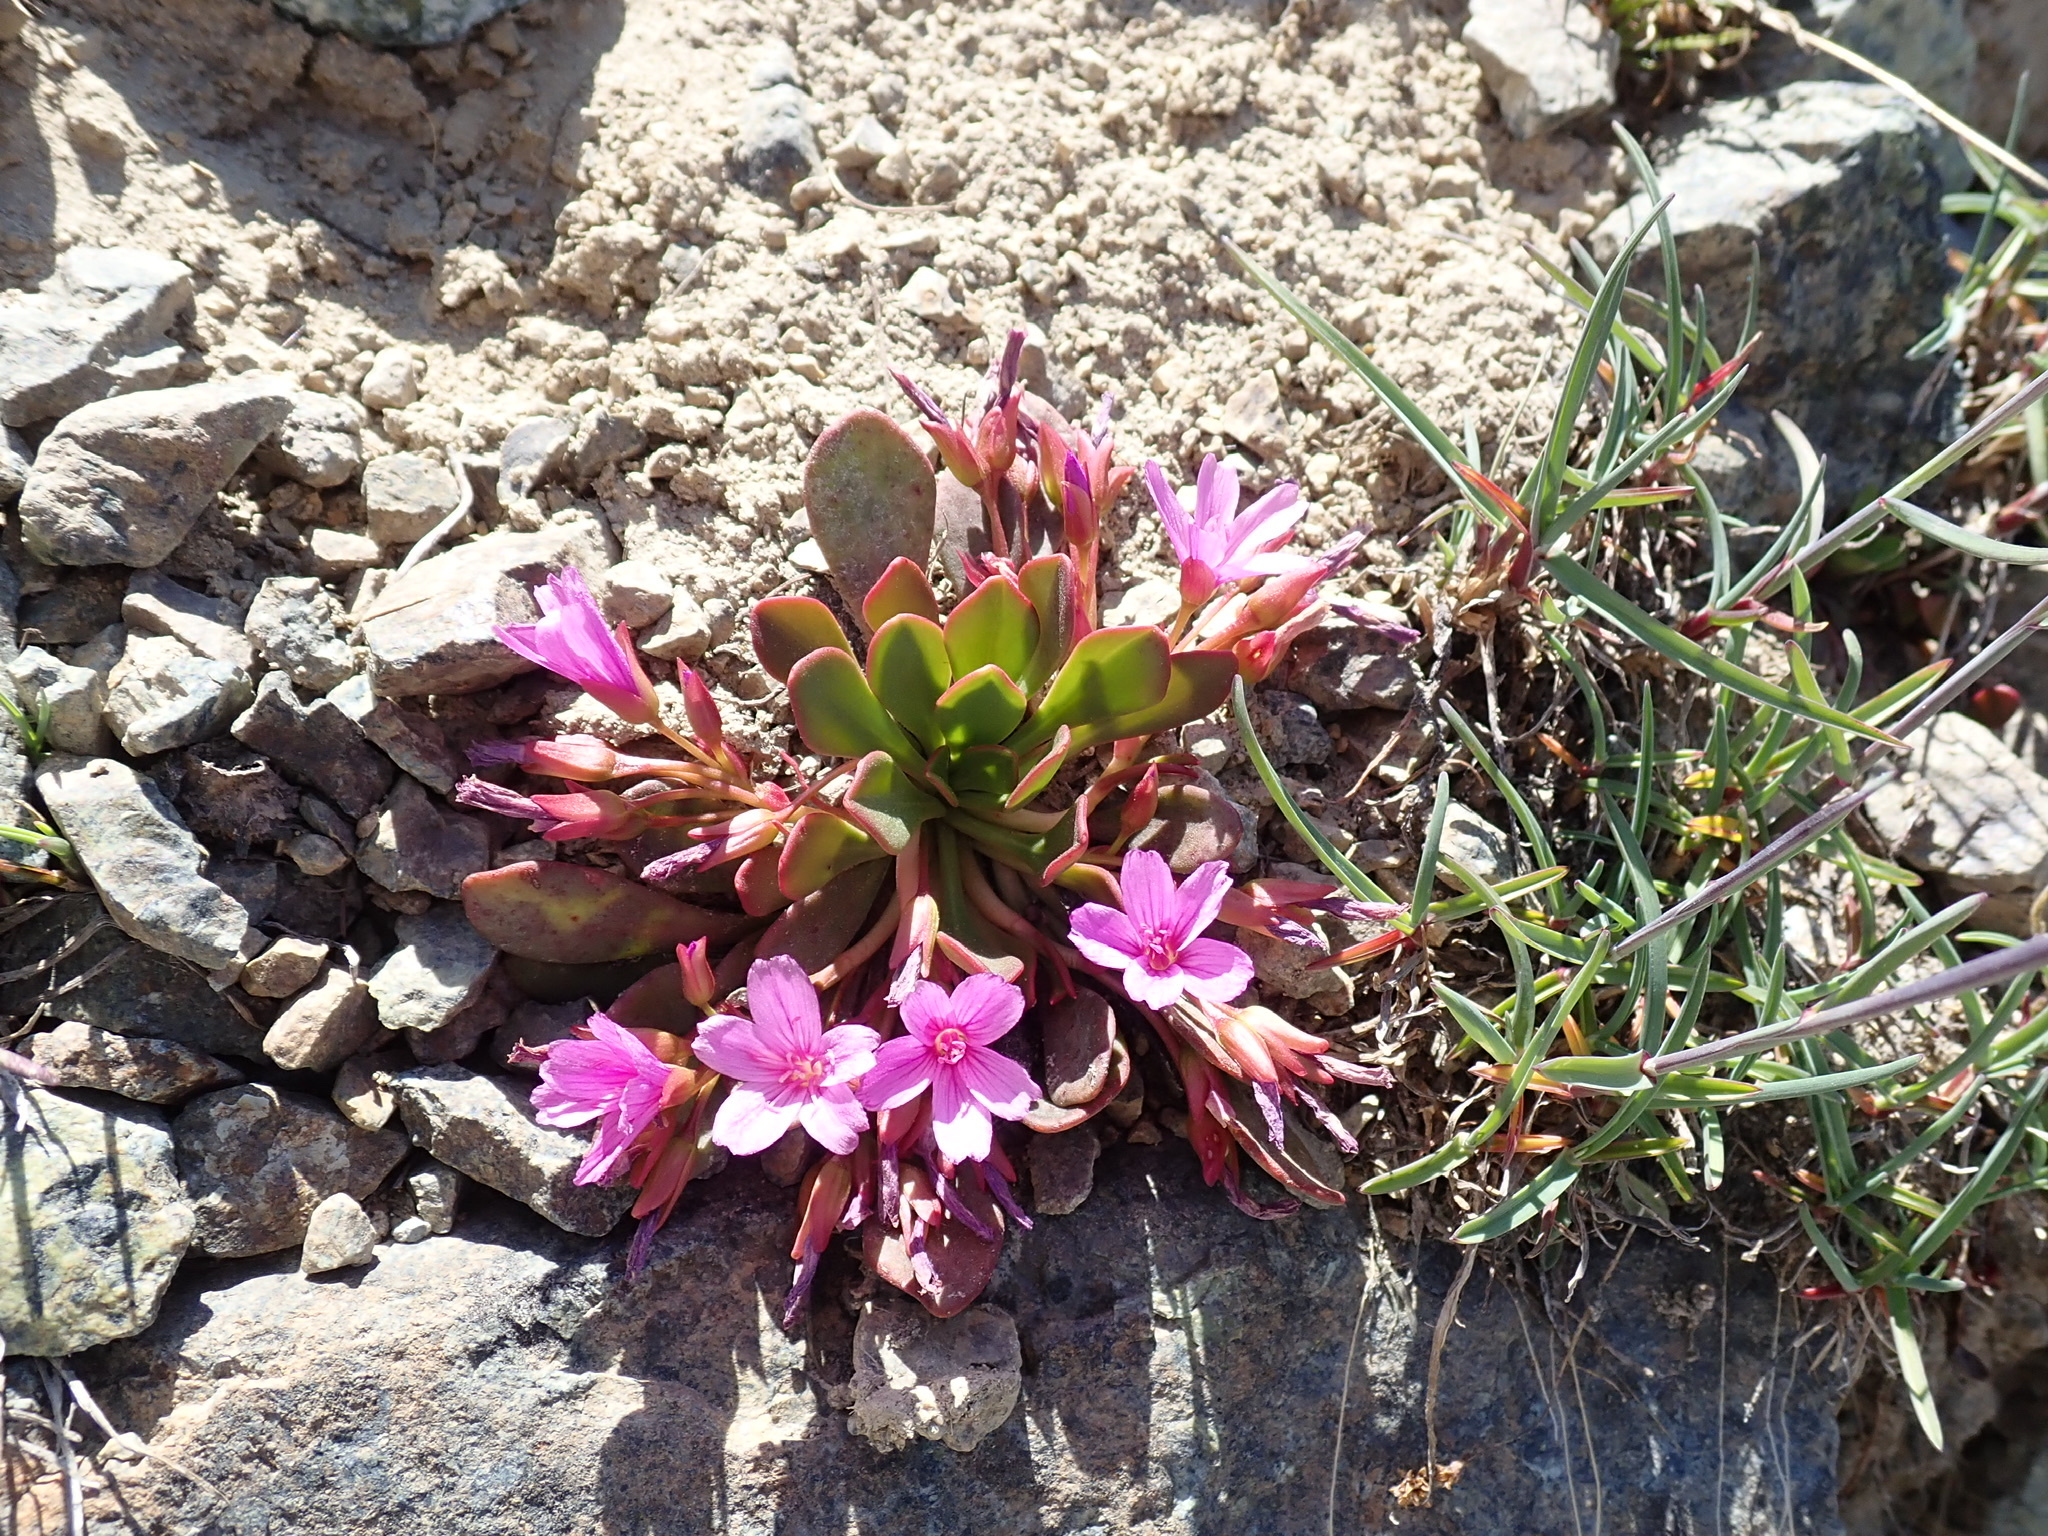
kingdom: Plantae
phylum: Tracheophyta
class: Magnoliopsida
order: Caryophyllales
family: Montiaceae
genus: Claytonia
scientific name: Claytonia megarhiza
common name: Alpine spring beauty
